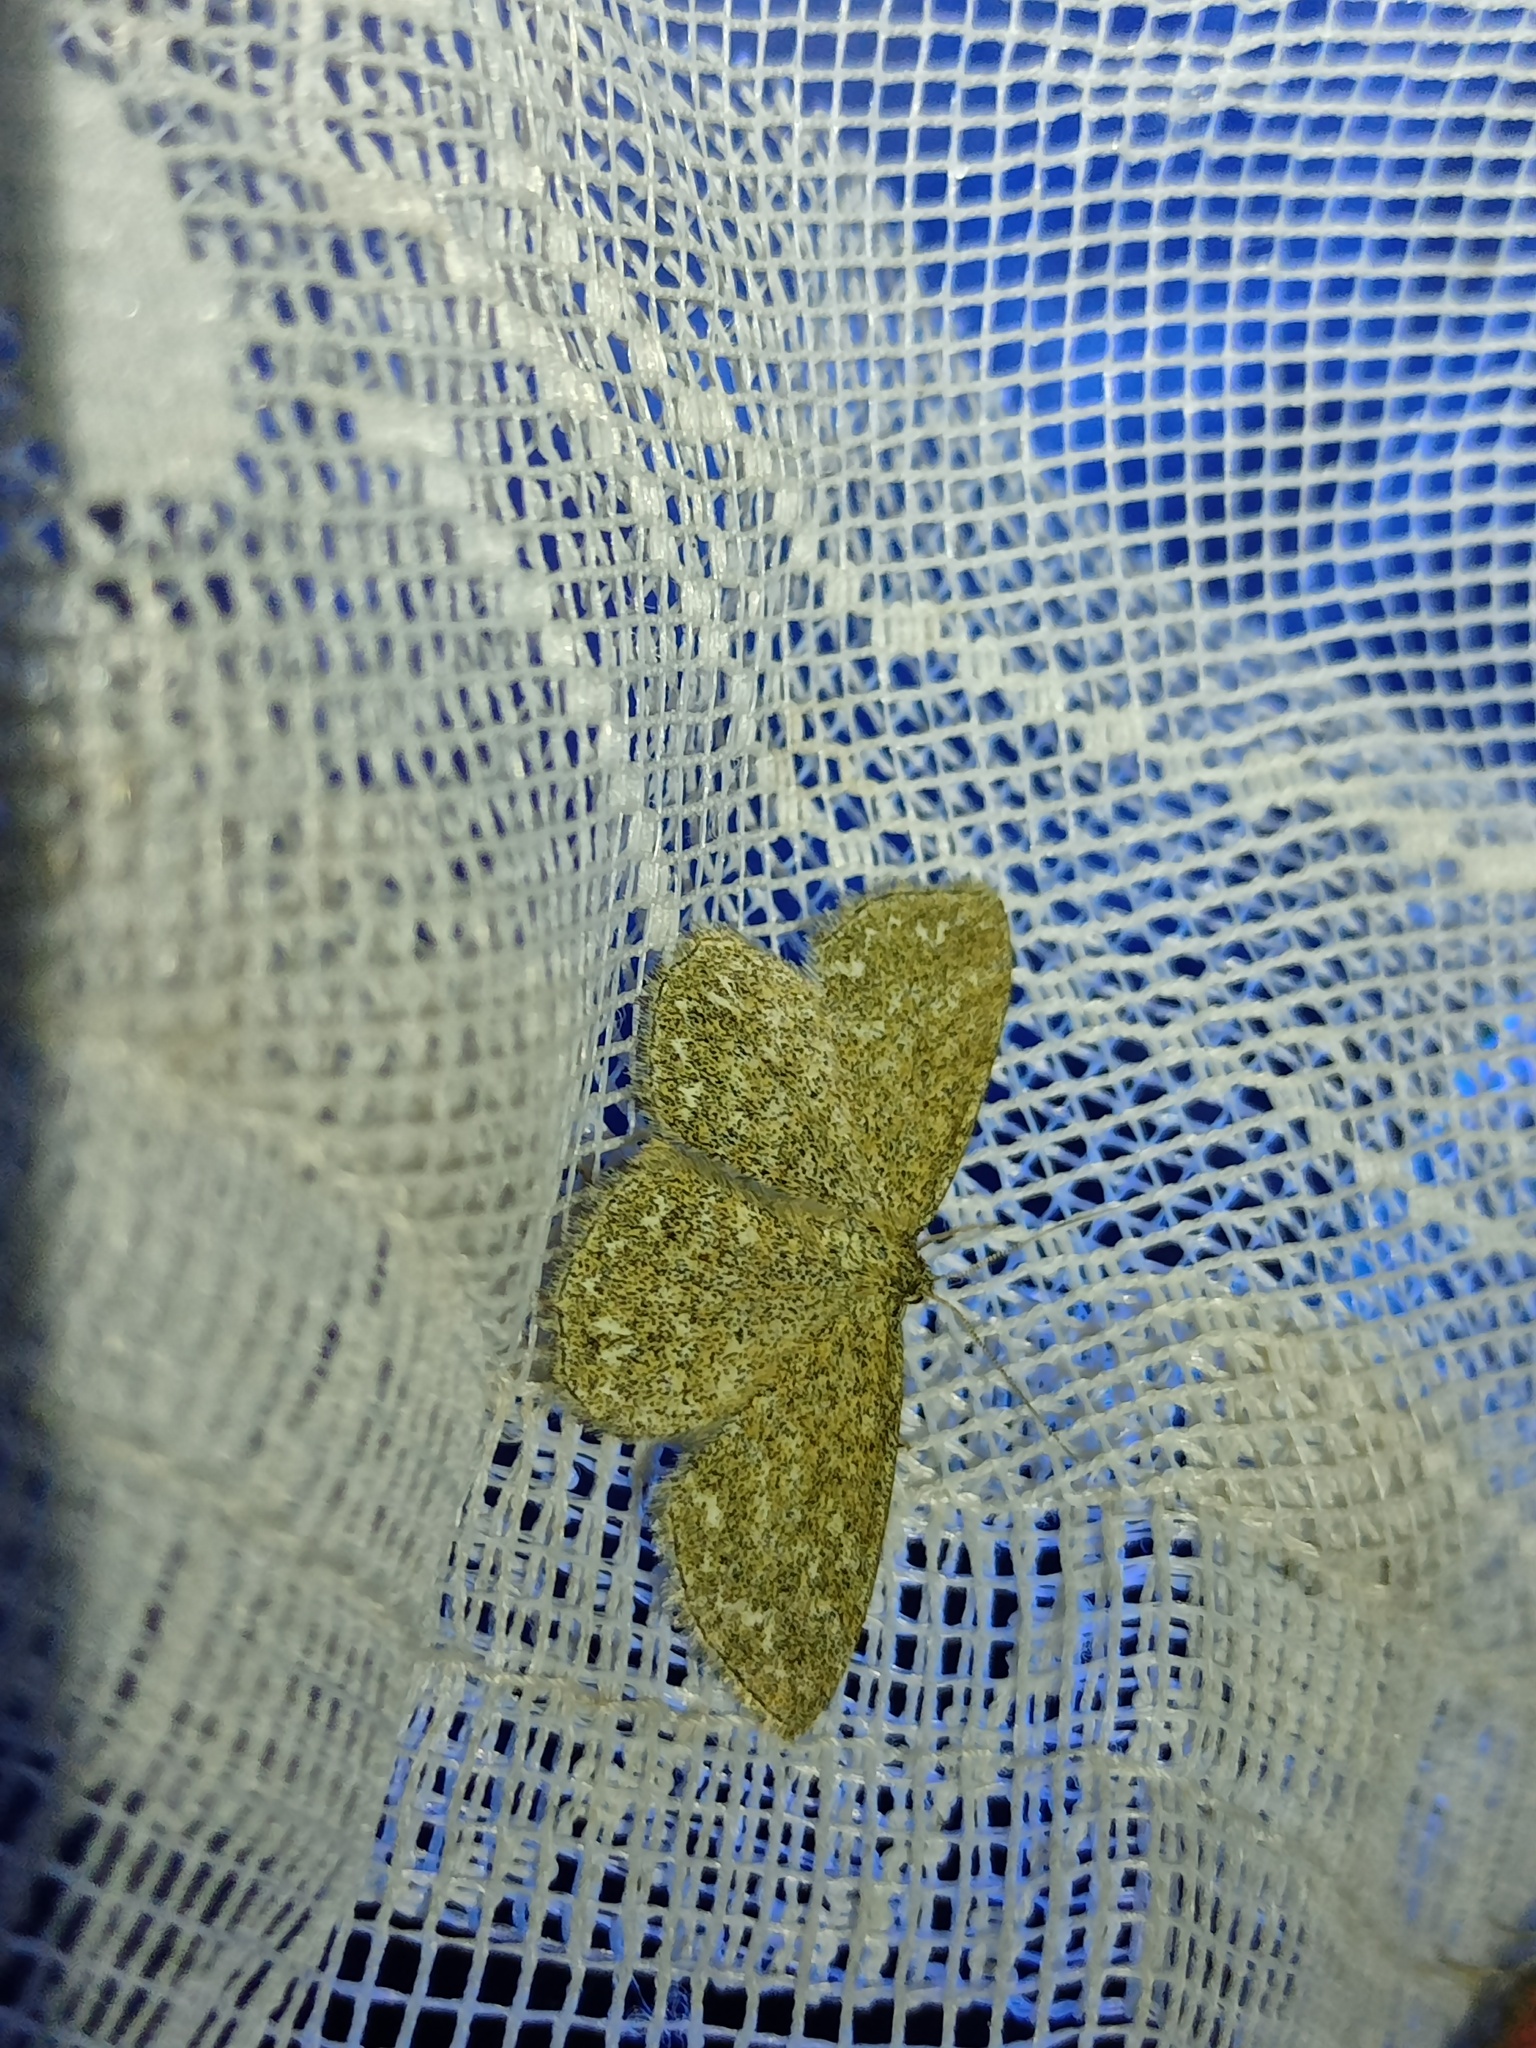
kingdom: Animalia
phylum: Arthropoda
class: Insecta
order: Lepidoptera
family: Geometridae
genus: Scopula
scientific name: Scopula immorata
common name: Lewes wave
